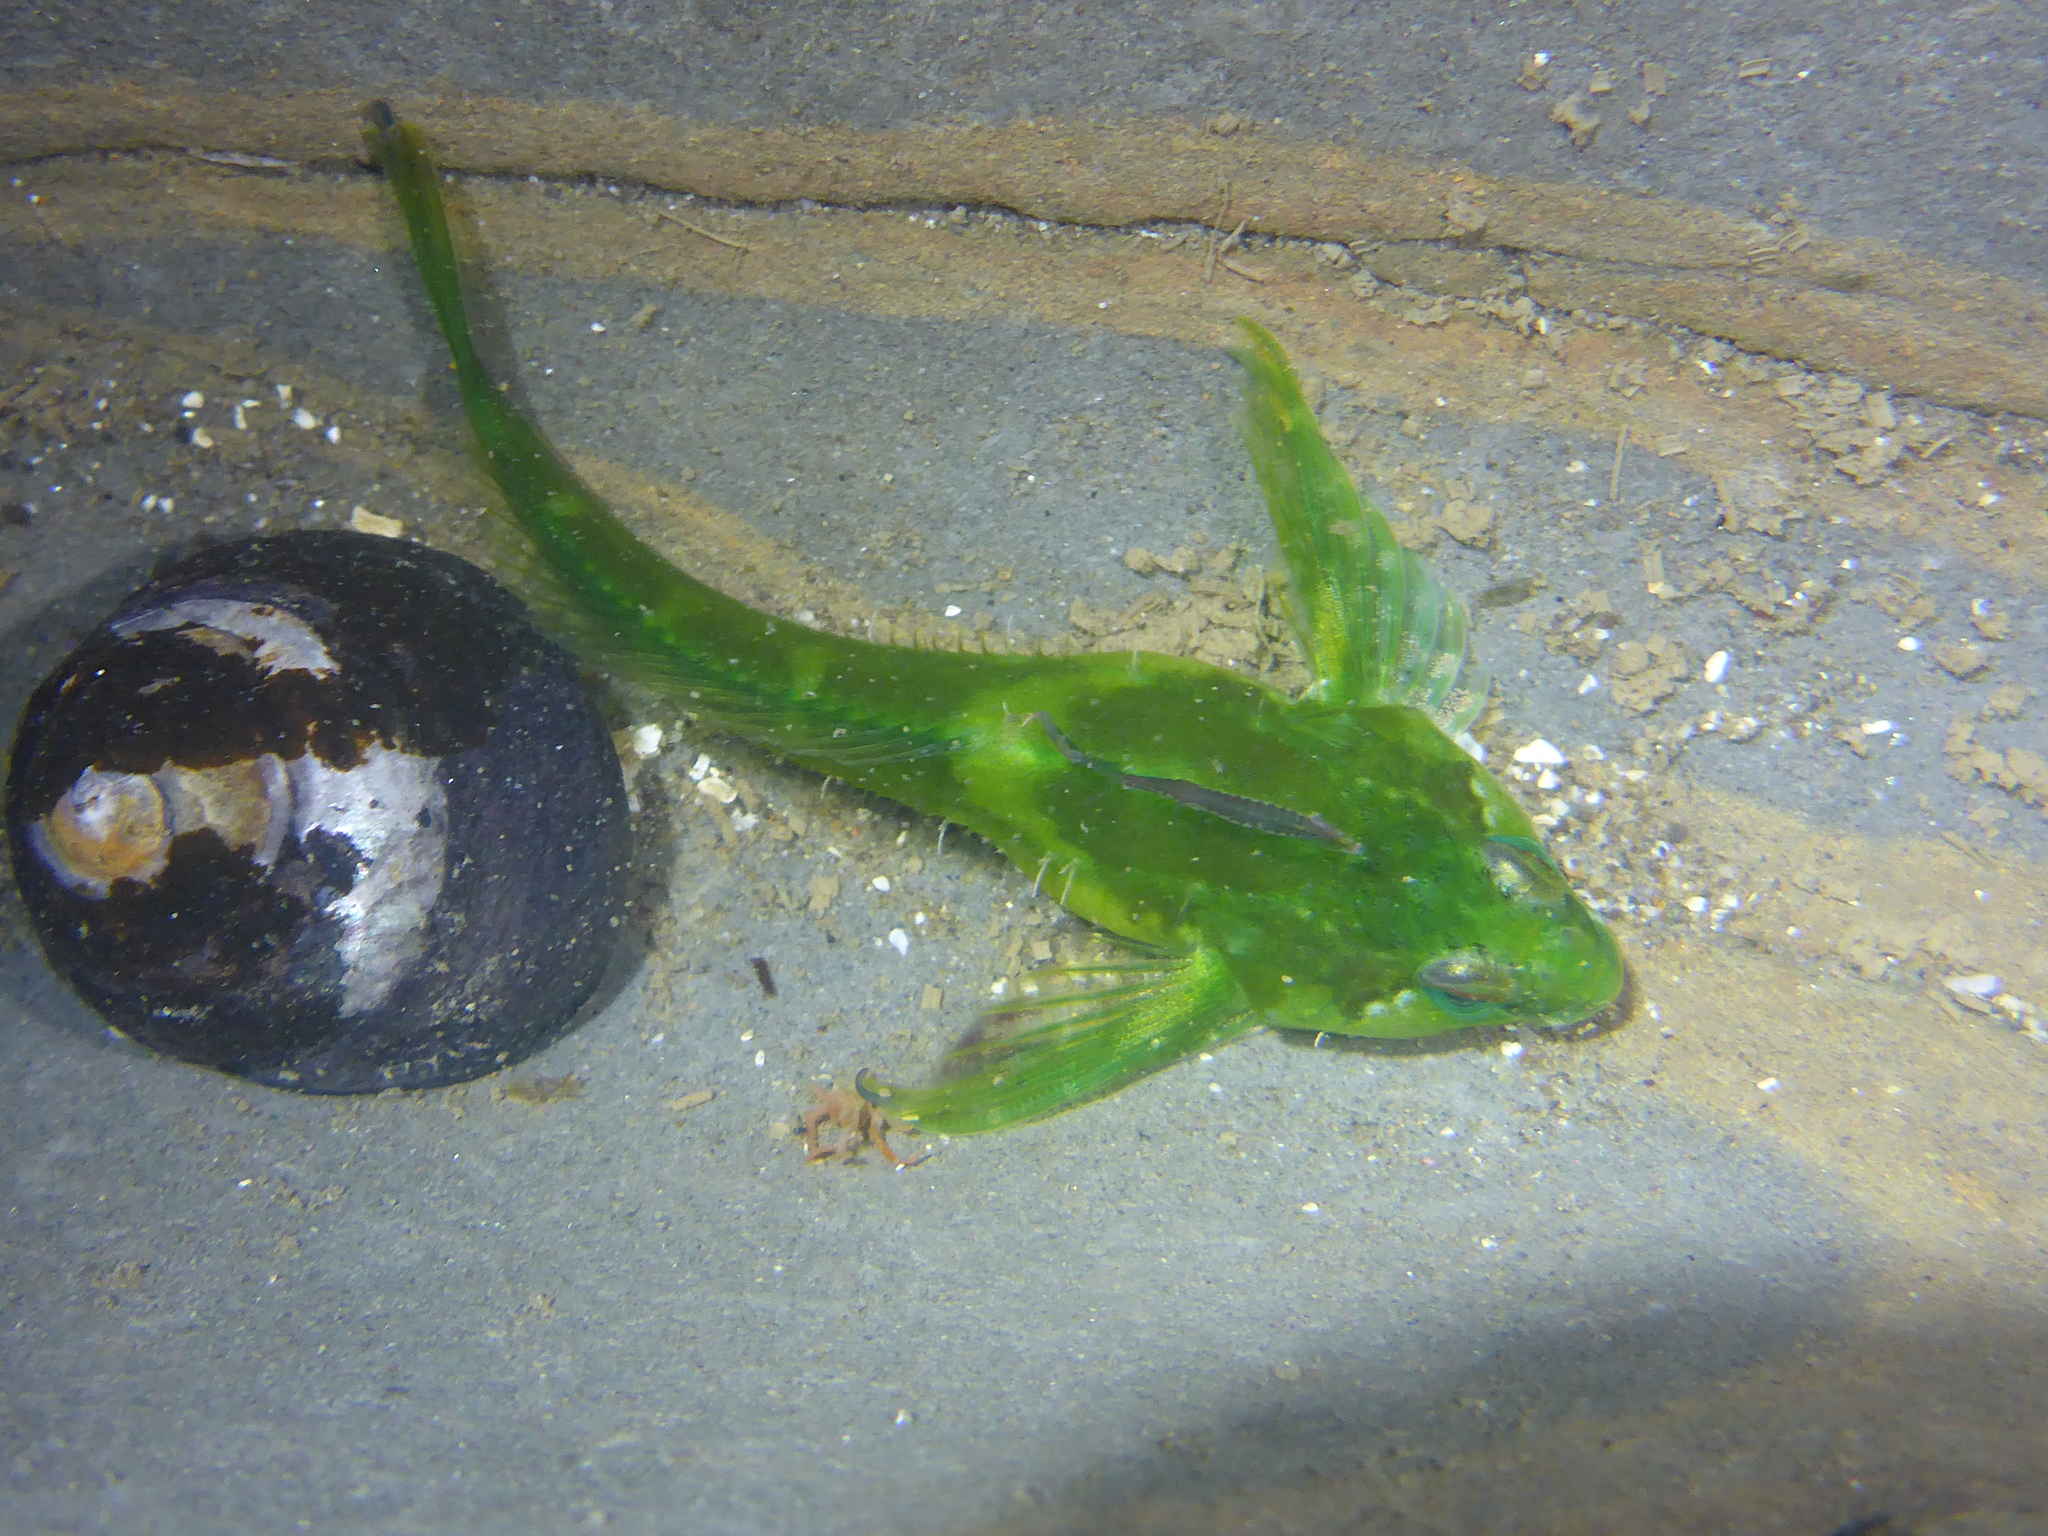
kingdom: Animalia
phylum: Chordata
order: Scorpaeniformes
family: Cottidae
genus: Oligocottus
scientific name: Oligocottus snyderi
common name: Fluffy sculpin
